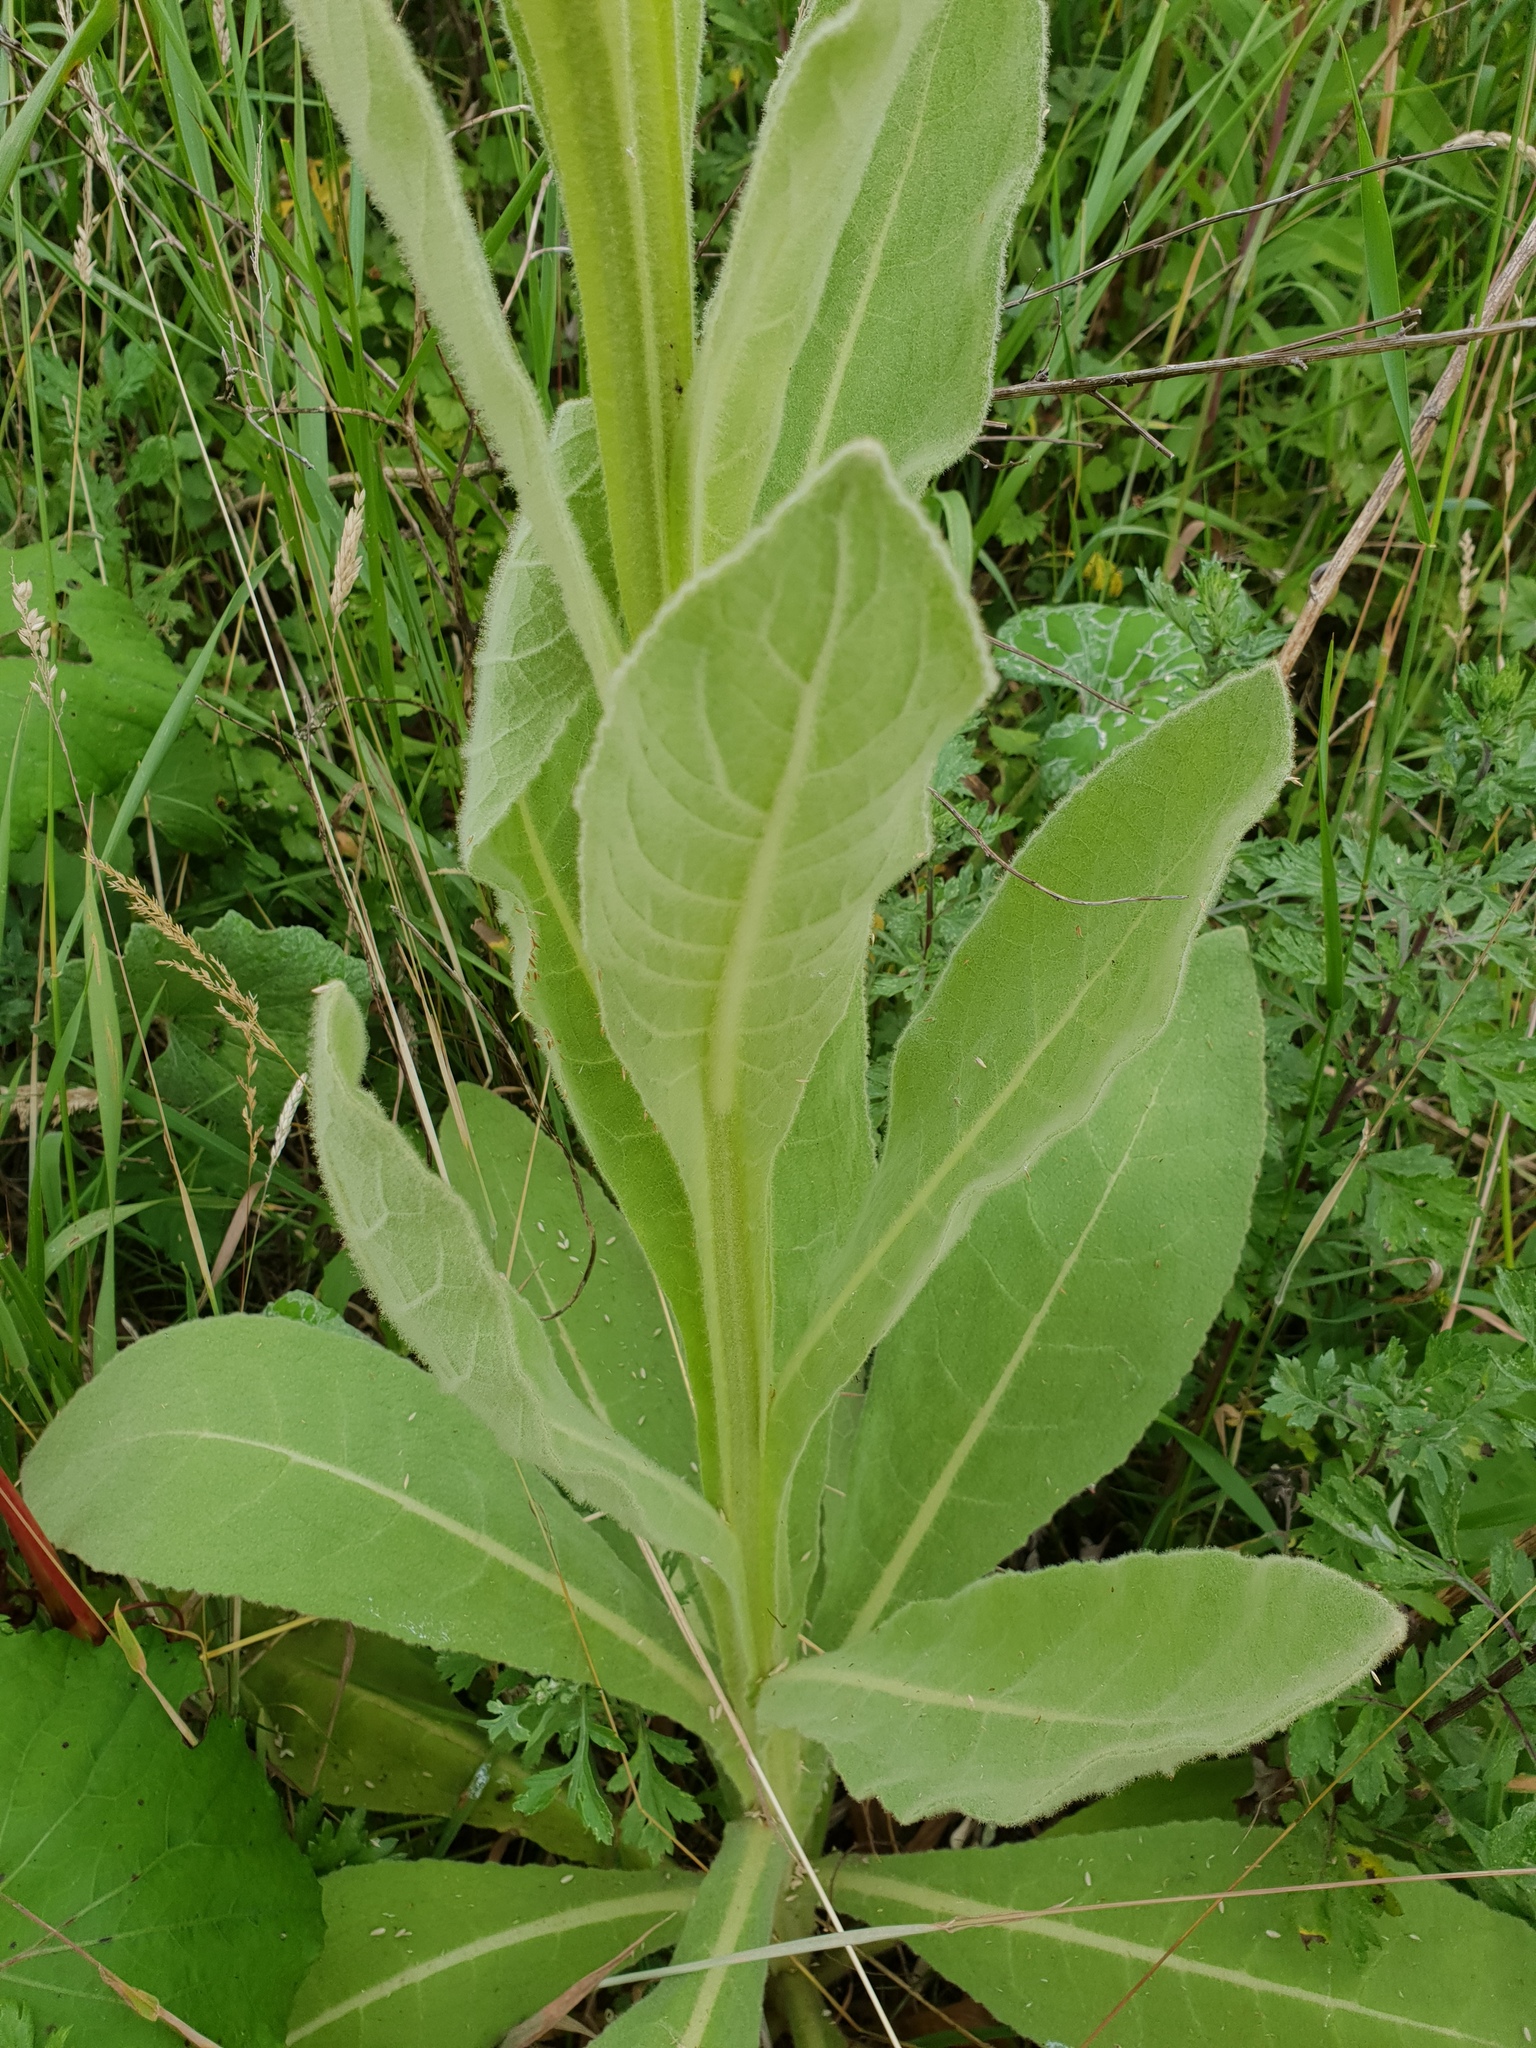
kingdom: Plantae
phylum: Tracheophyta
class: Magnoliopsida
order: Lamiales
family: Scrophulariaceae
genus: Verbascum
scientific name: Verbascum thapsus
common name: Common mullein
